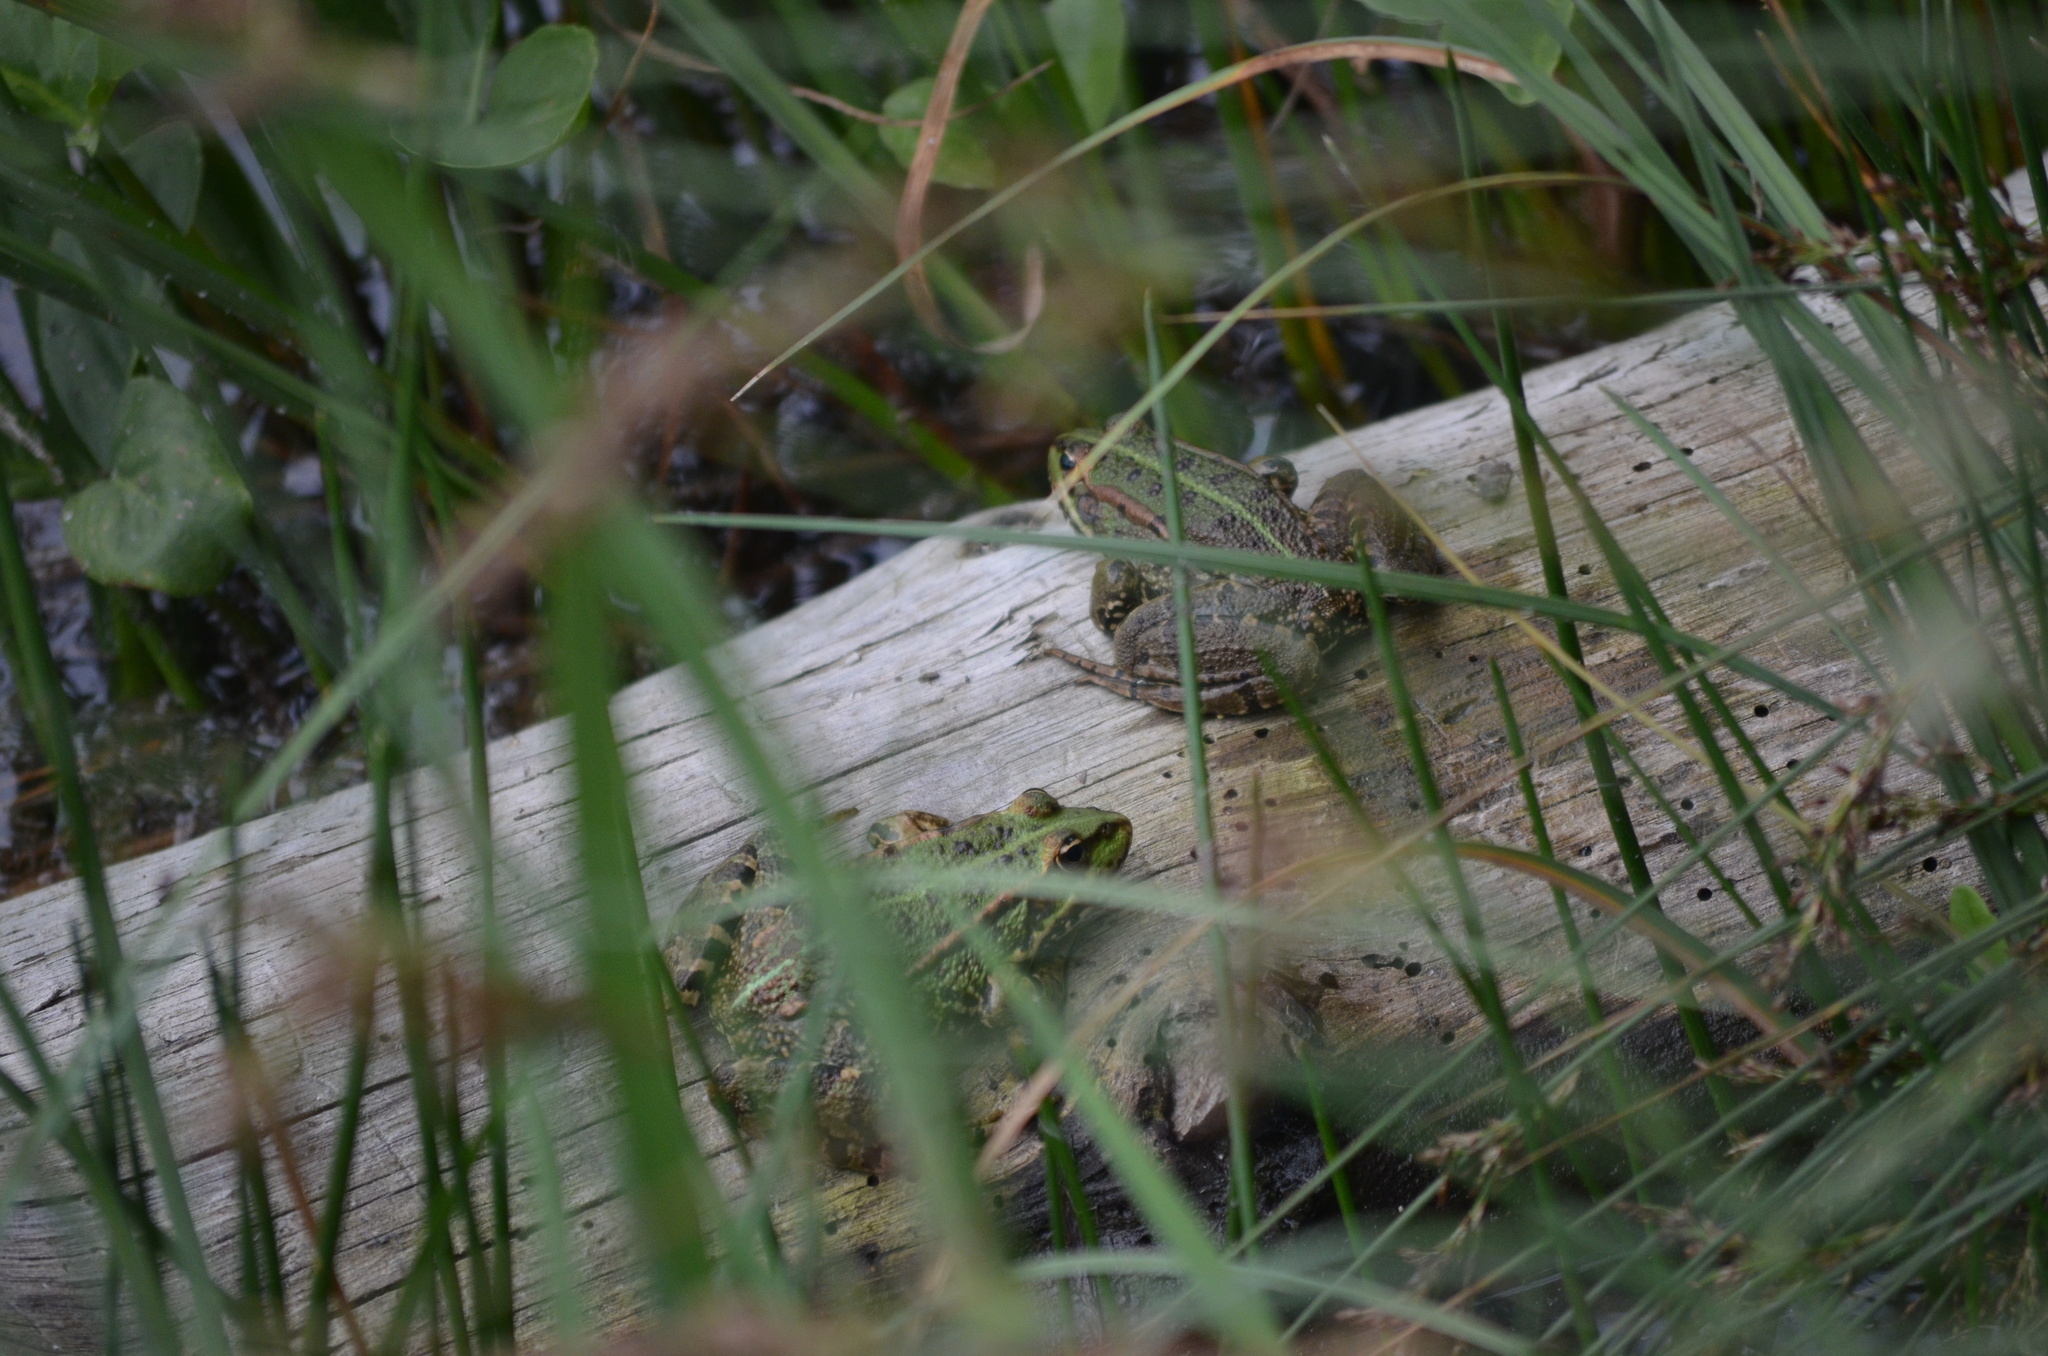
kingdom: Animalia
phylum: Chordata
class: Amphibia
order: Anura
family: Ranidae
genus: Pelophylax
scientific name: Pelophylax perezi
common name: Perez's frog
